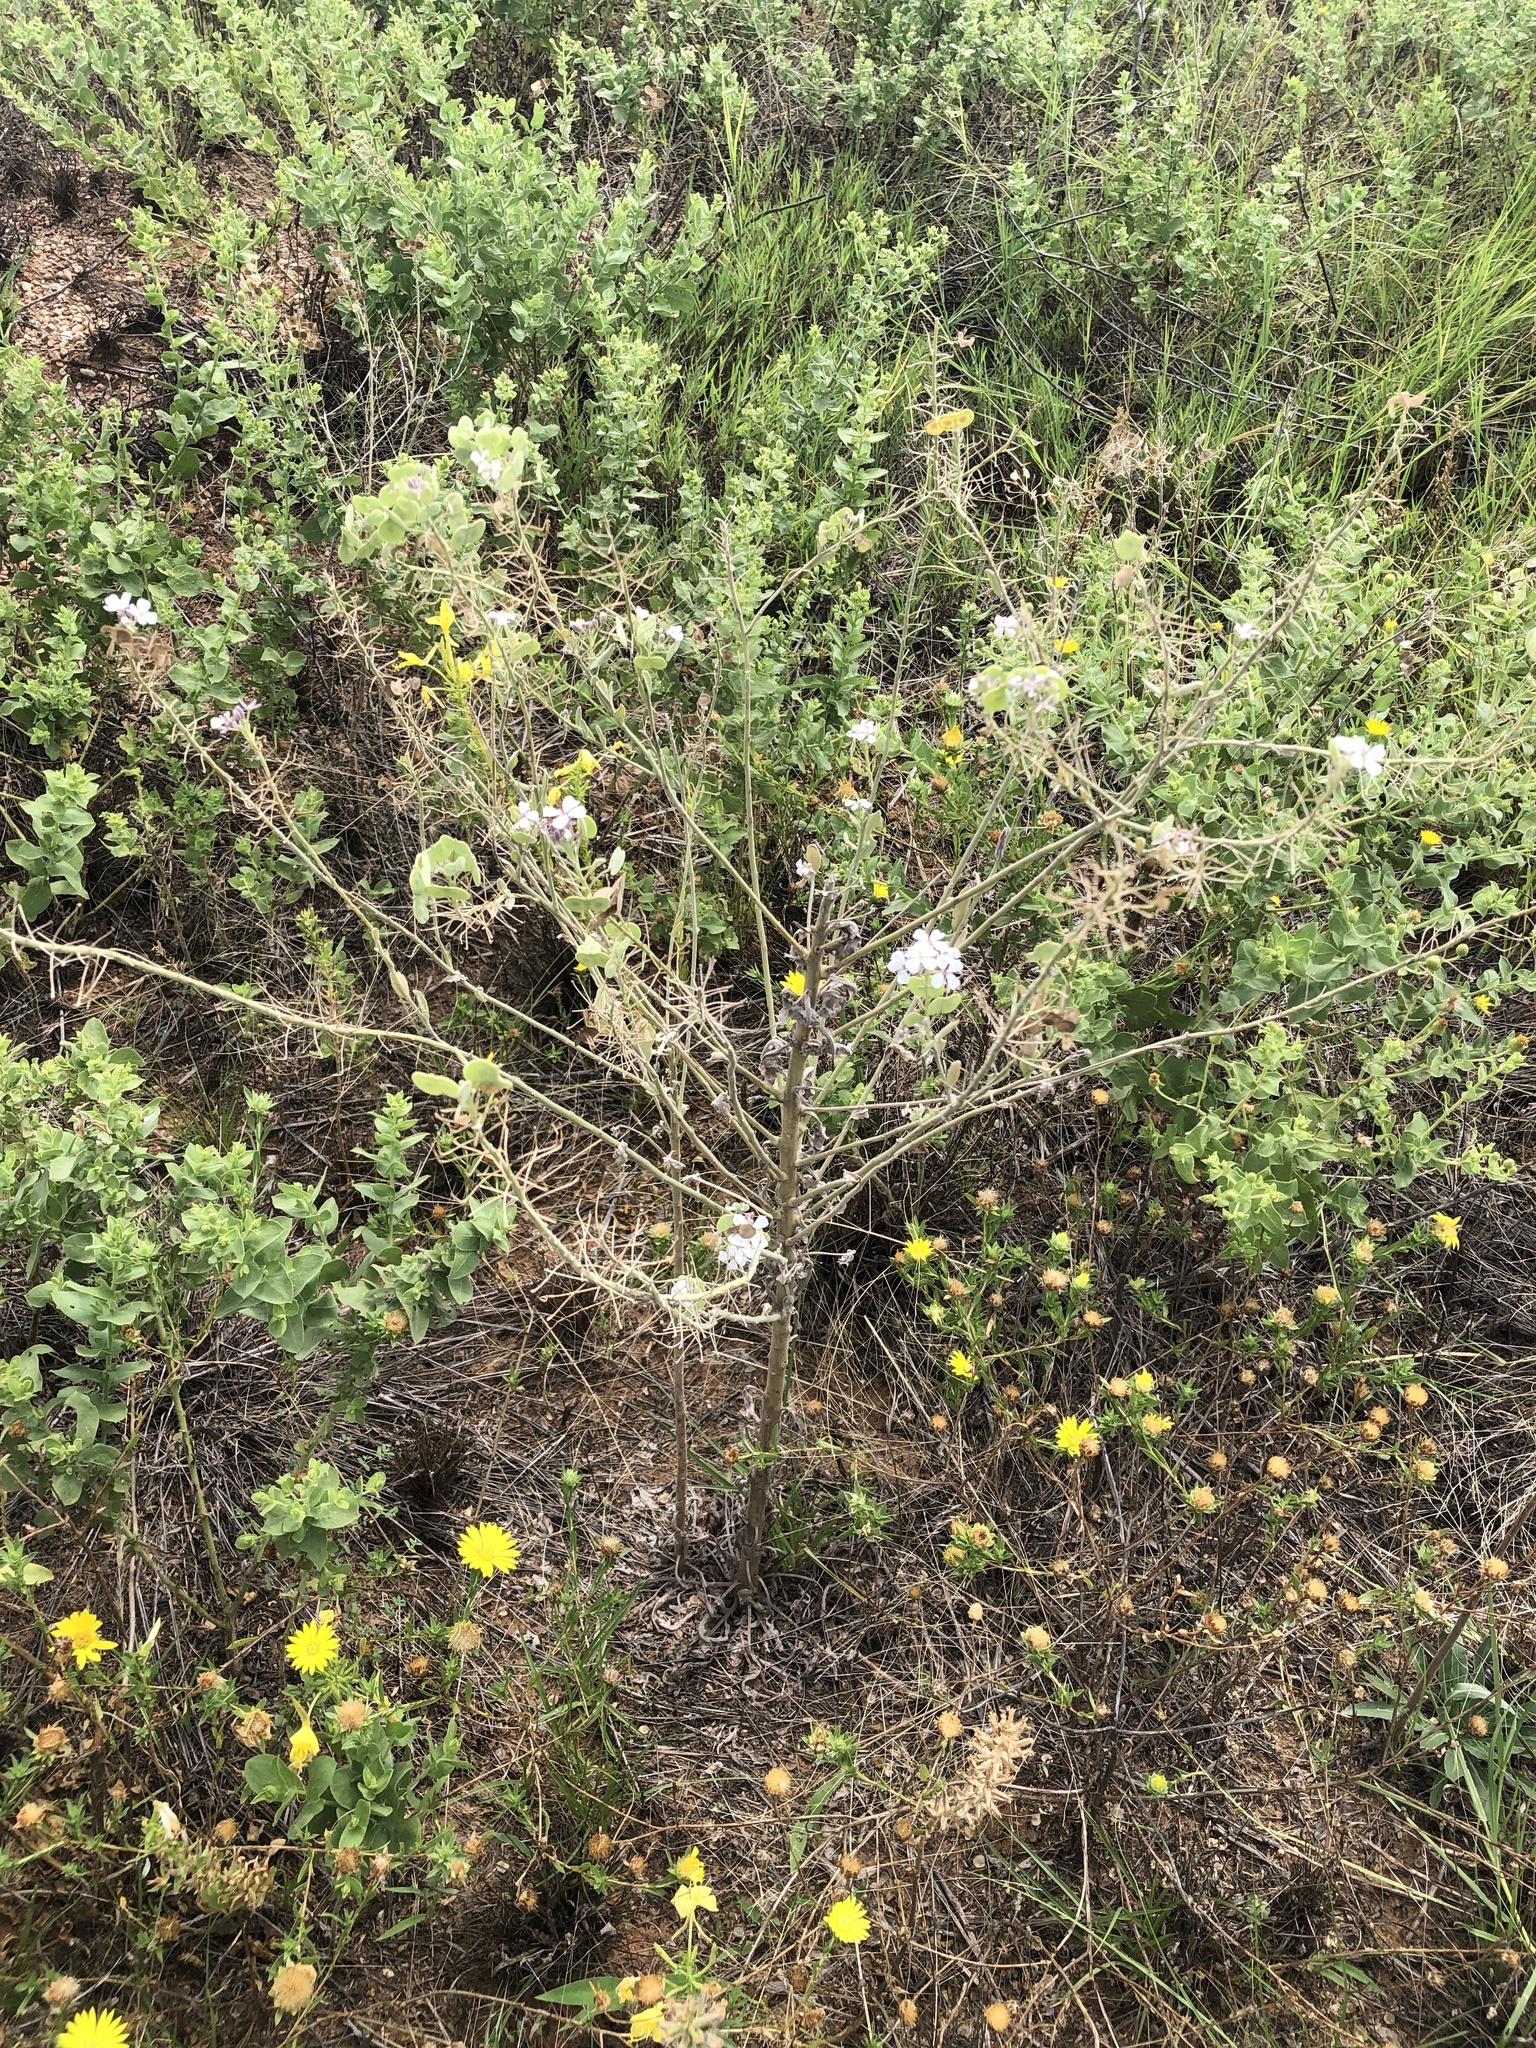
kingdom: Plantae
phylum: Tracheophyta
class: Magnoliopsida
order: Brassicales
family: Brassicaceae
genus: Dimorphocarpa
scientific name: Dimorphocarpa candicans
